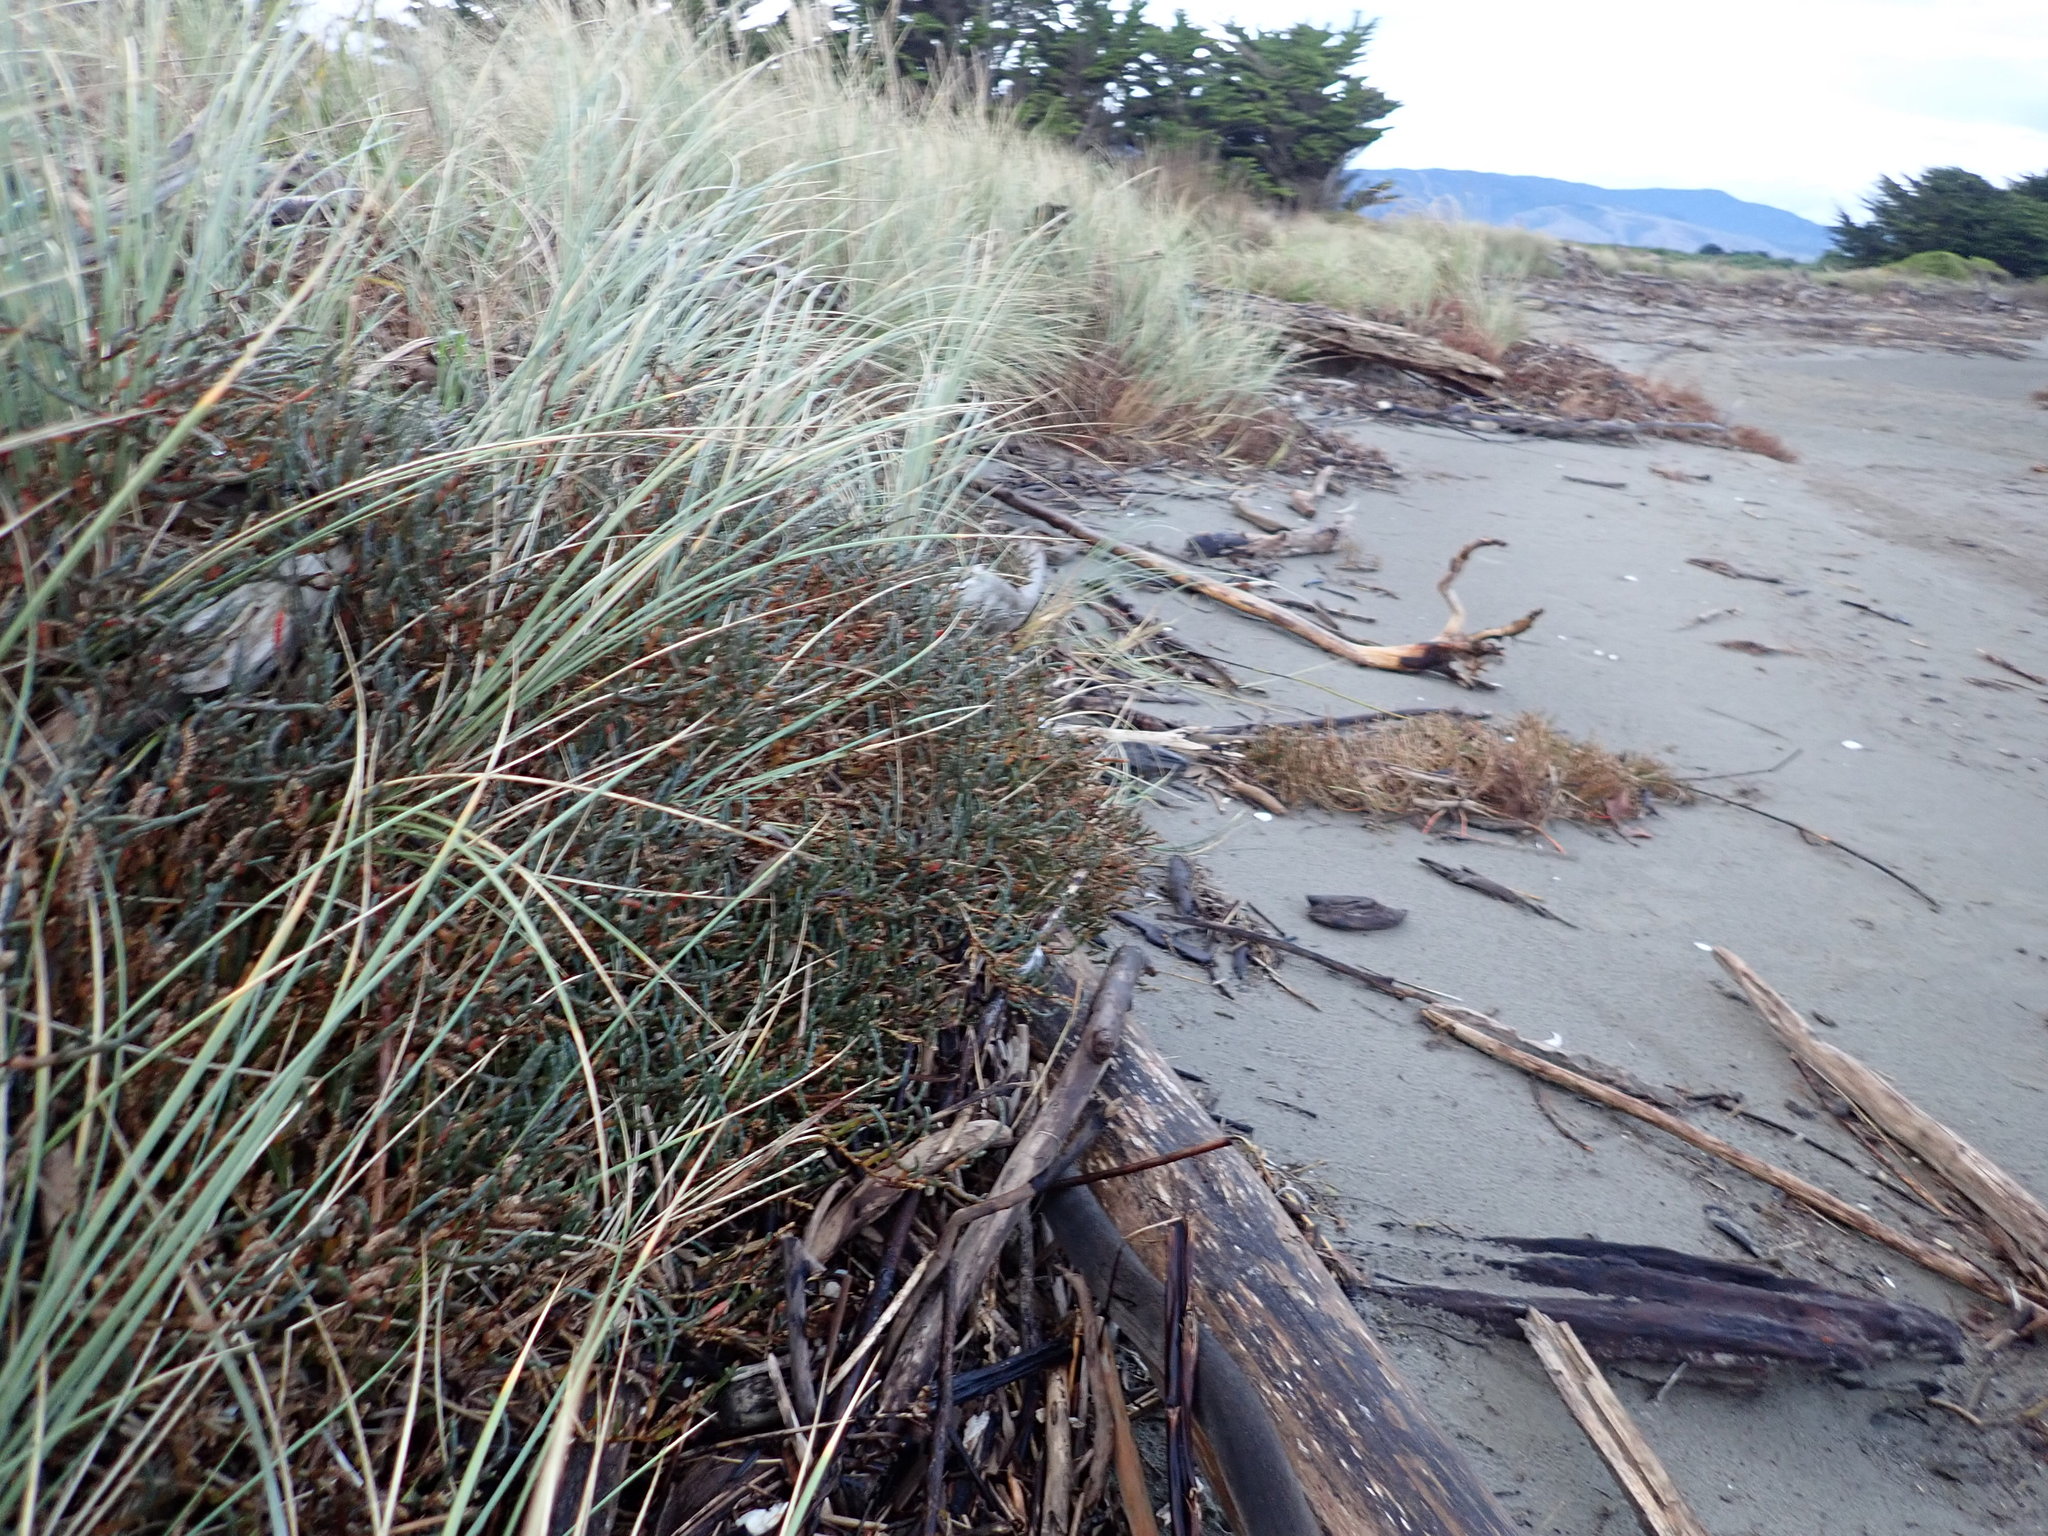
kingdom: Plantae
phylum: Tracheophyta
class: Liliopsida
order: Alismatales
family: Juncaginaceae
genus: Triglochin
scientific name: Triglochin striata
